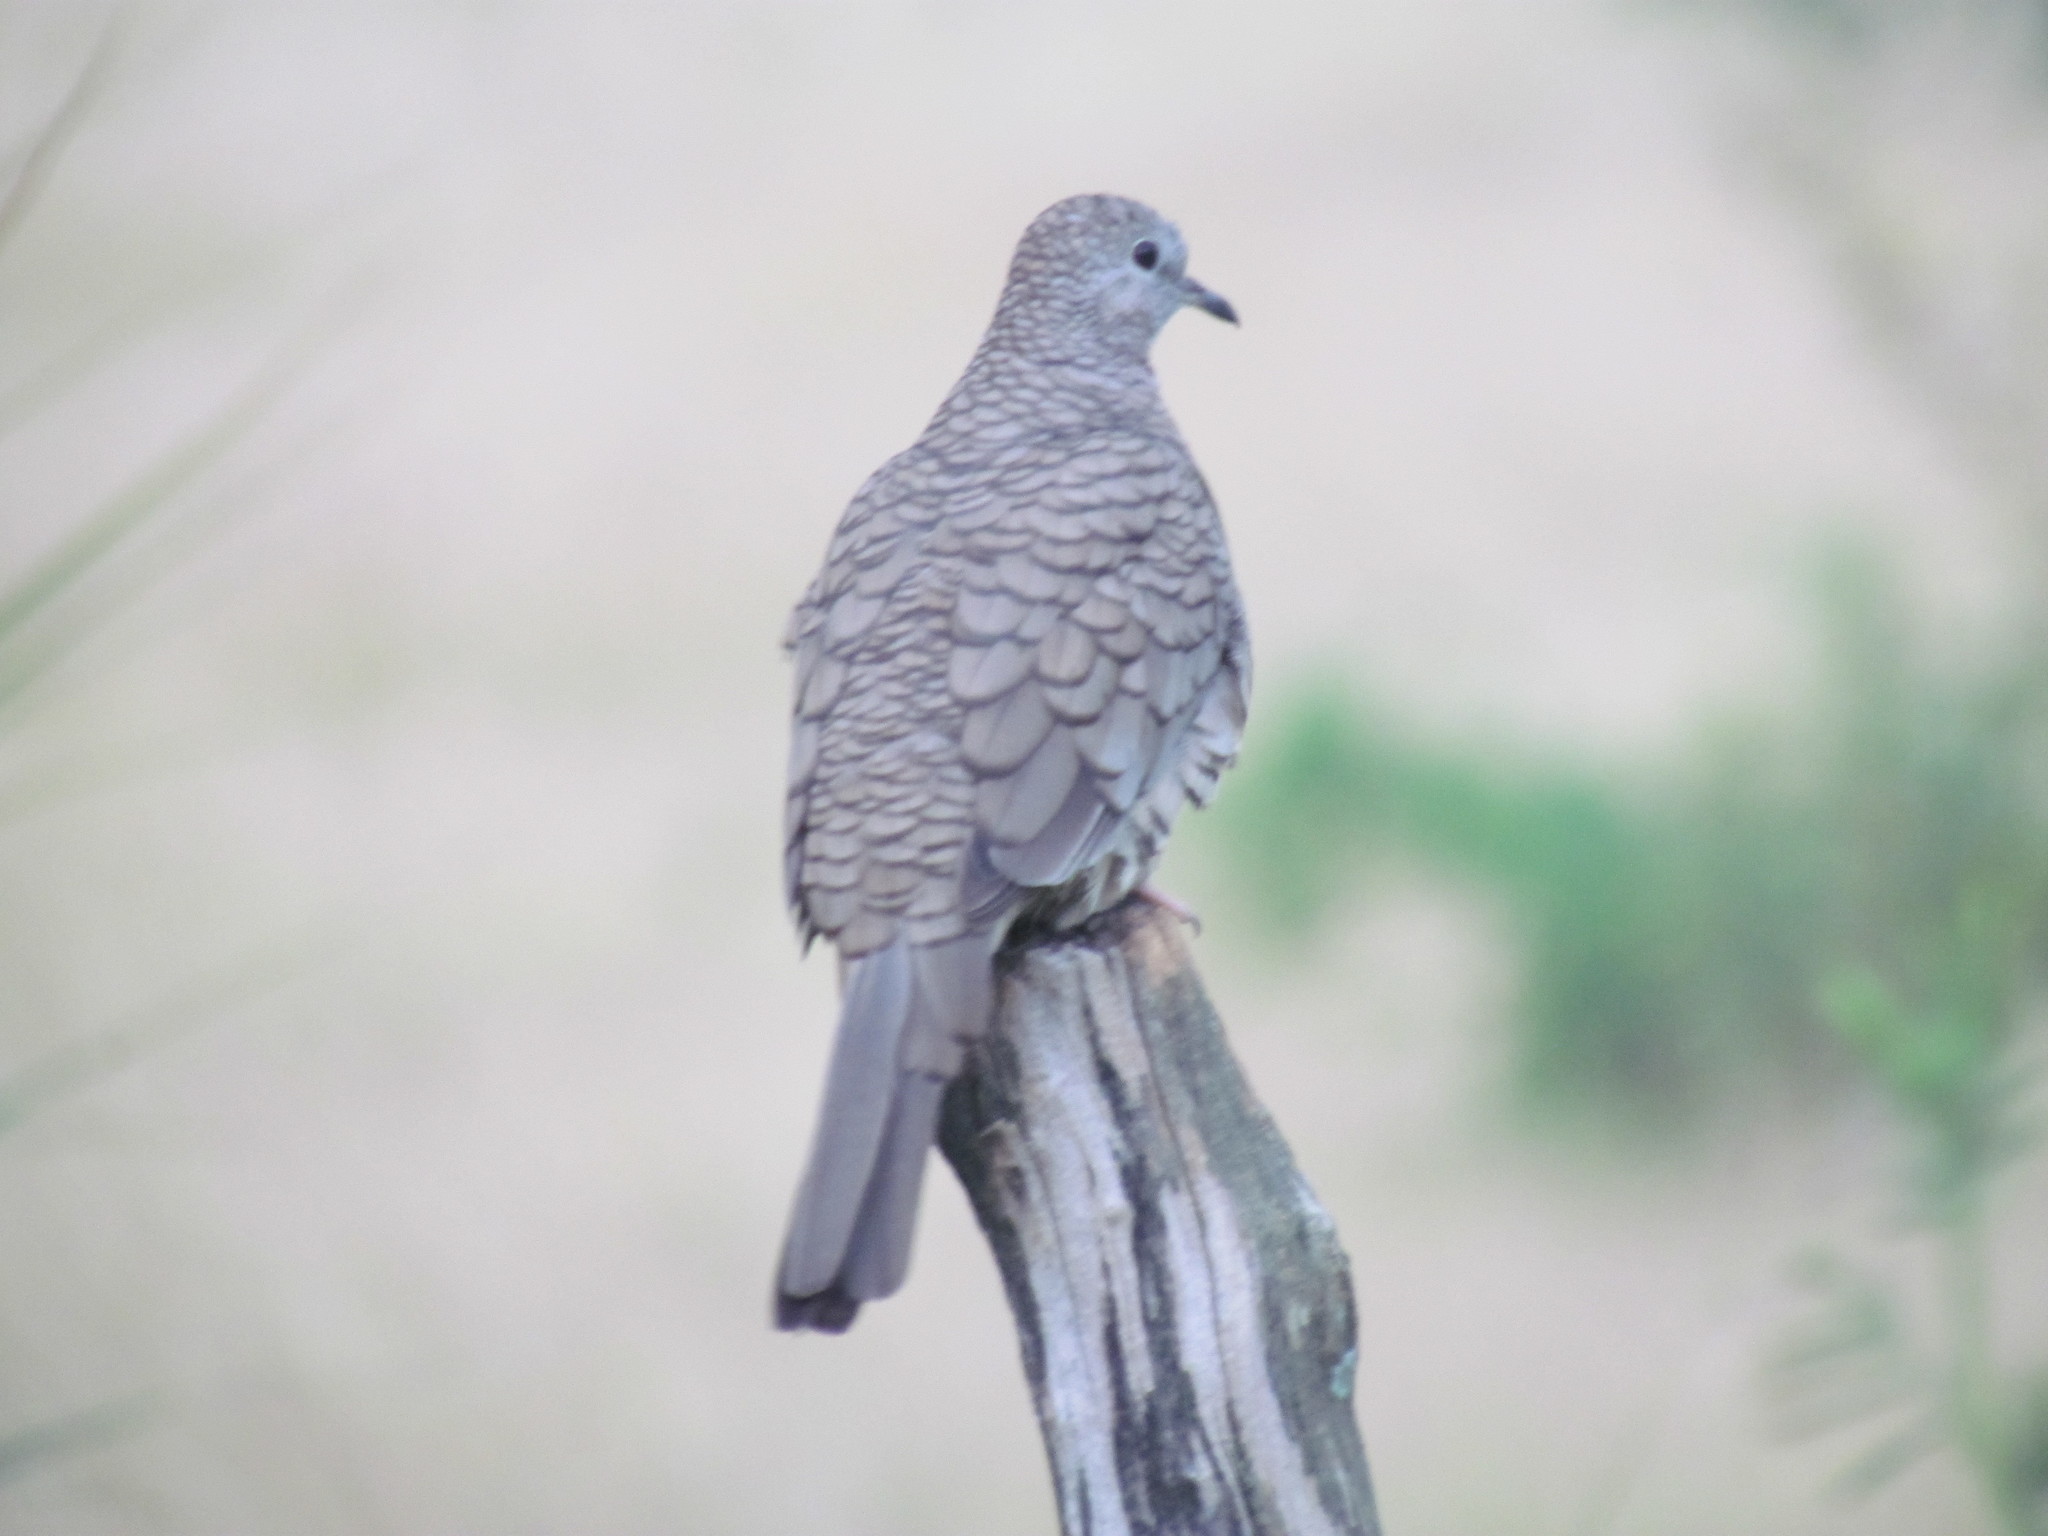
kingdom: Animalia
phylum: Chordata
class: Aves
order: Columbiformes
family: Columbidae
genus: Columbina
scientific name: Columbina inca
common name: Inca dove
